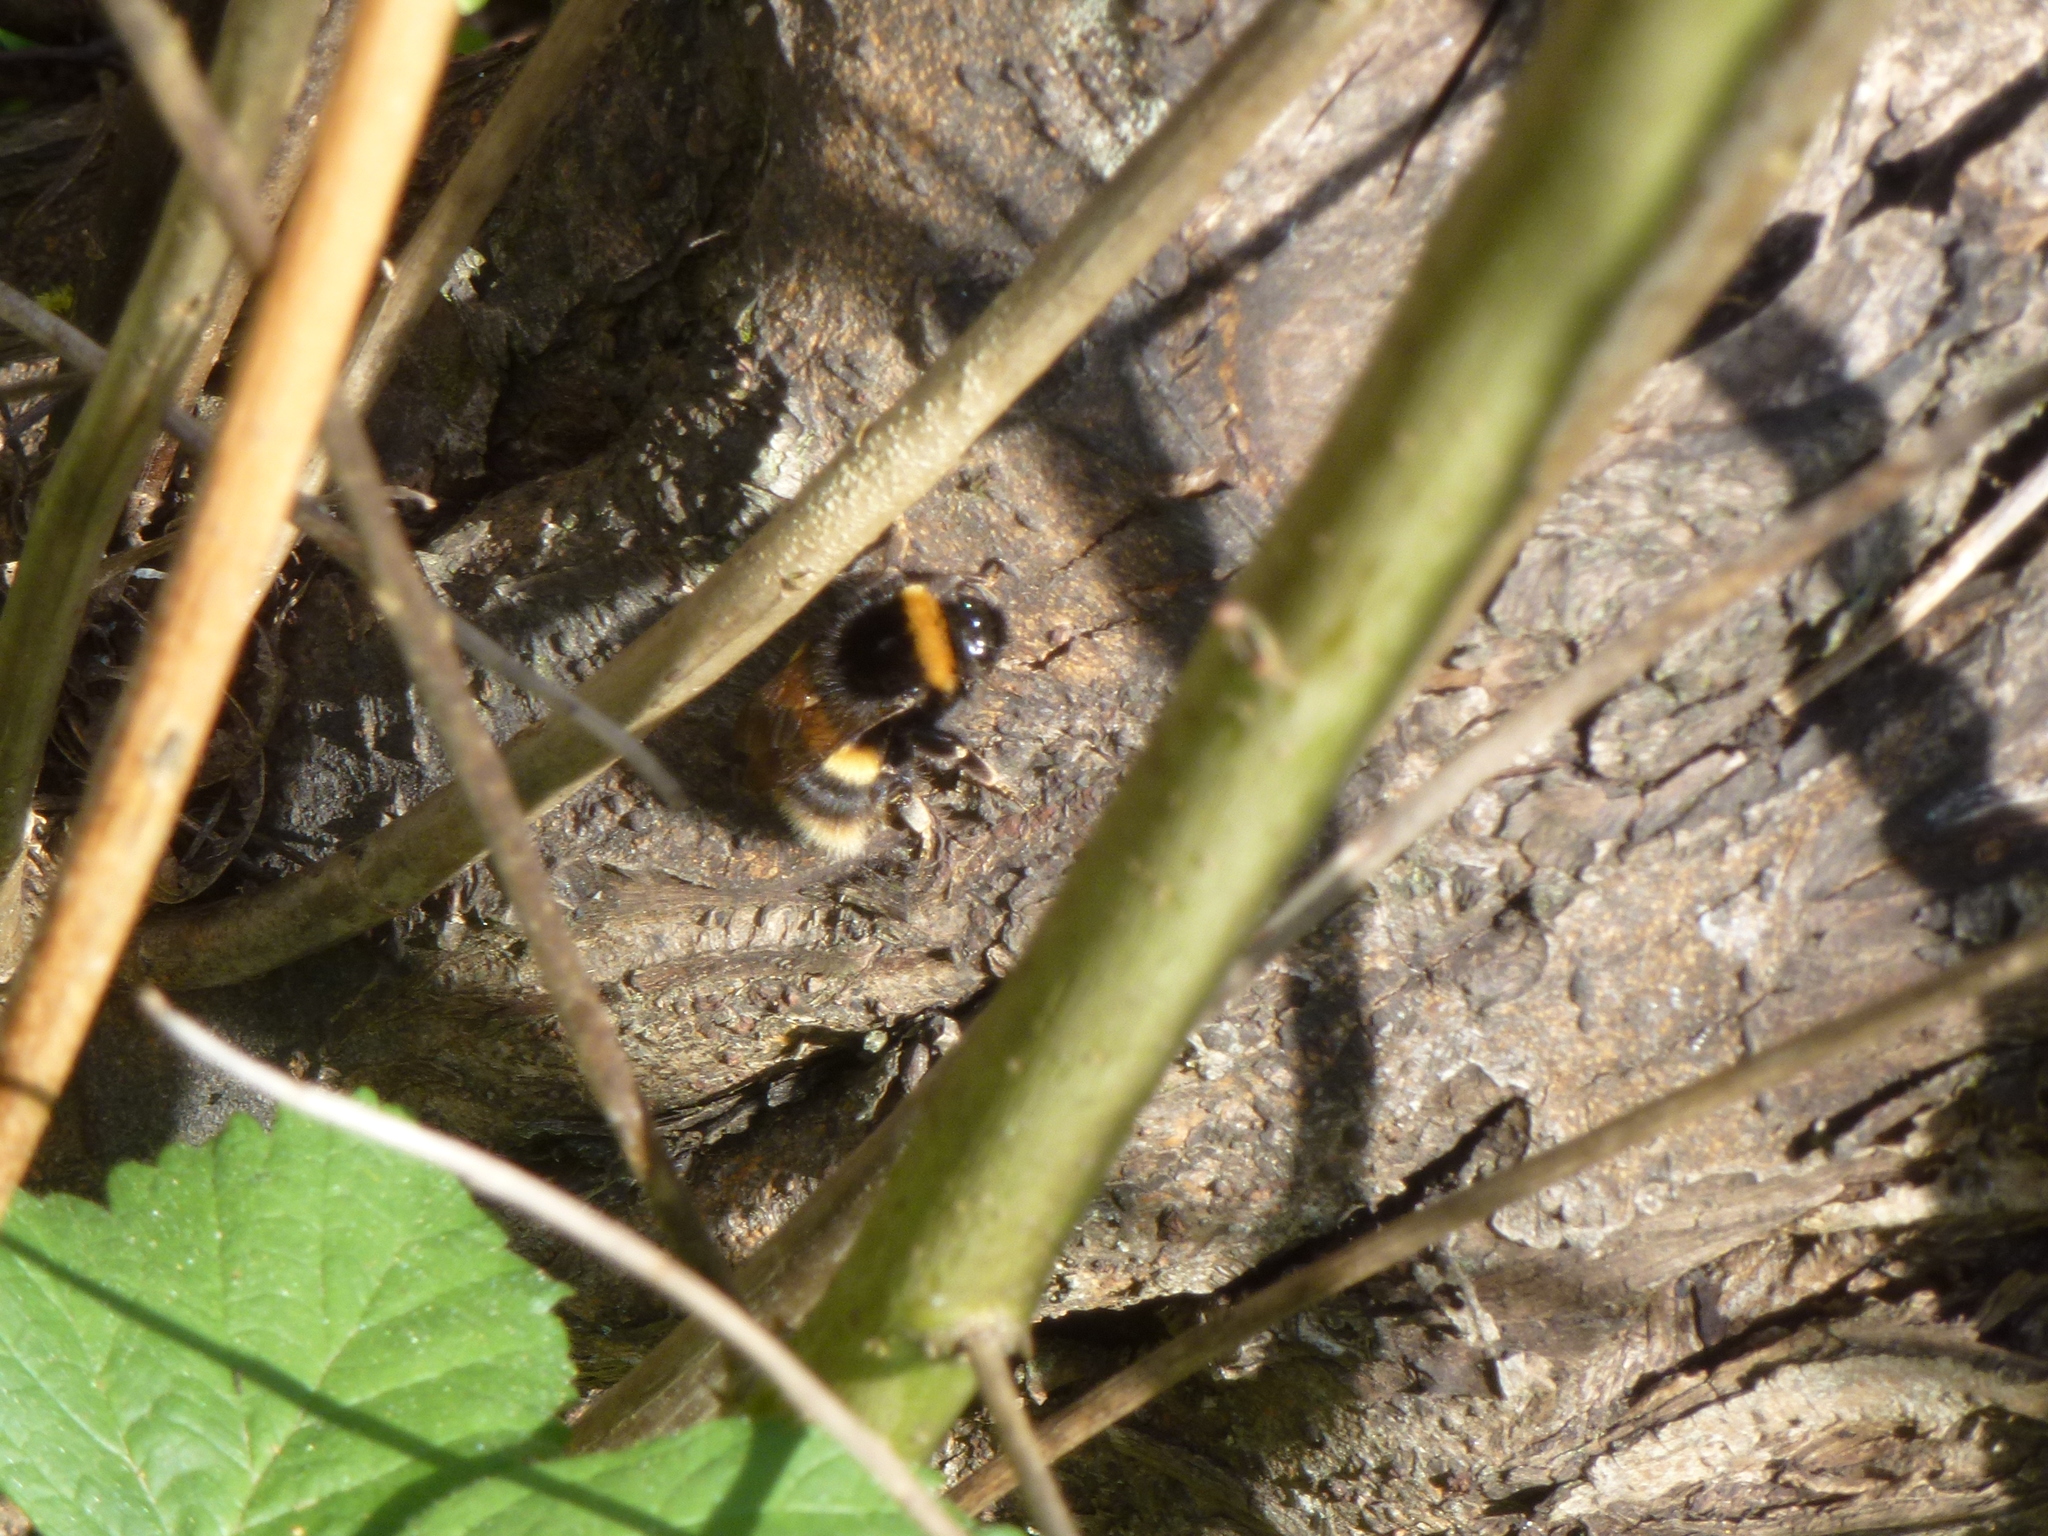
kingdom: Animalia
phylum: Arthropoda
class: Insecta
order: Hymenoptera
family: Apidae
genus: Bombus
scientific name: Bombus terrestris
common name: Buff-tailed bumblebee
